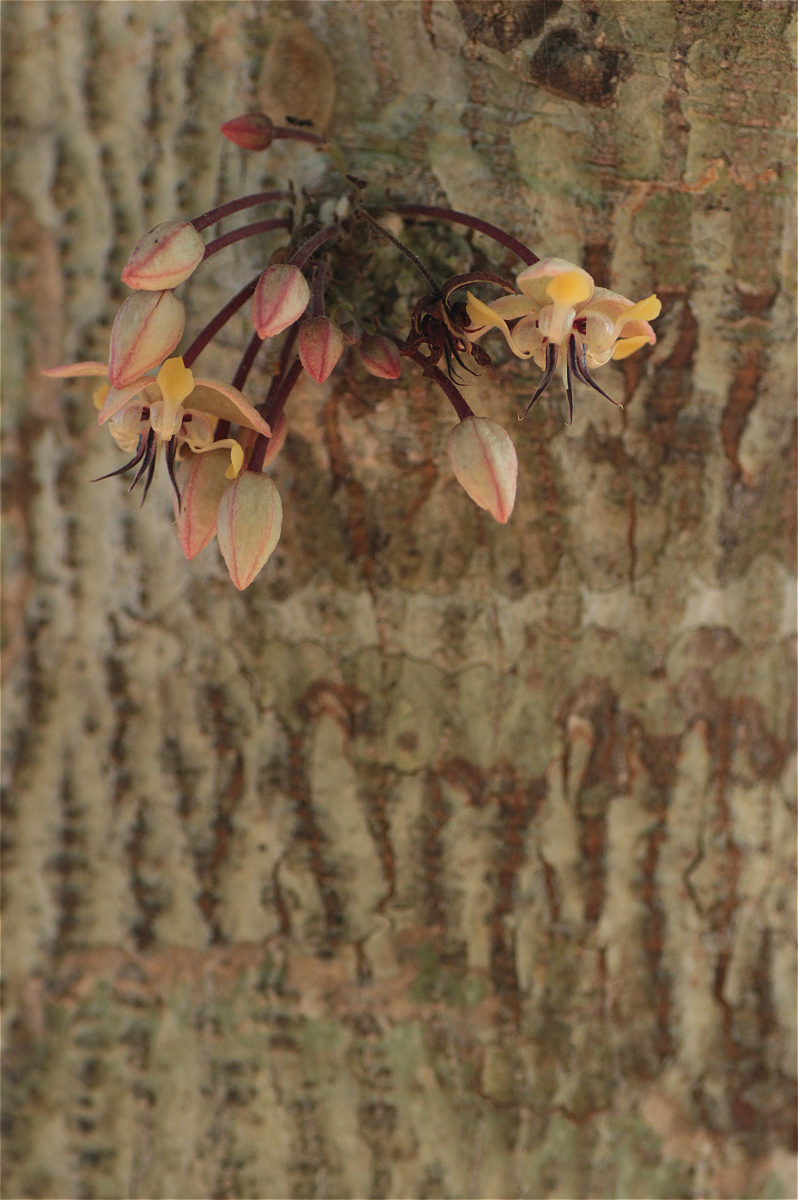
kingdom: Plantae
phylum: Tracheophyta
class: Magnoliopsida
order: Malvales
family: Malvaceae
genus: Theobroma
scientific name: Theobroma cacao
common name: Cocoa
